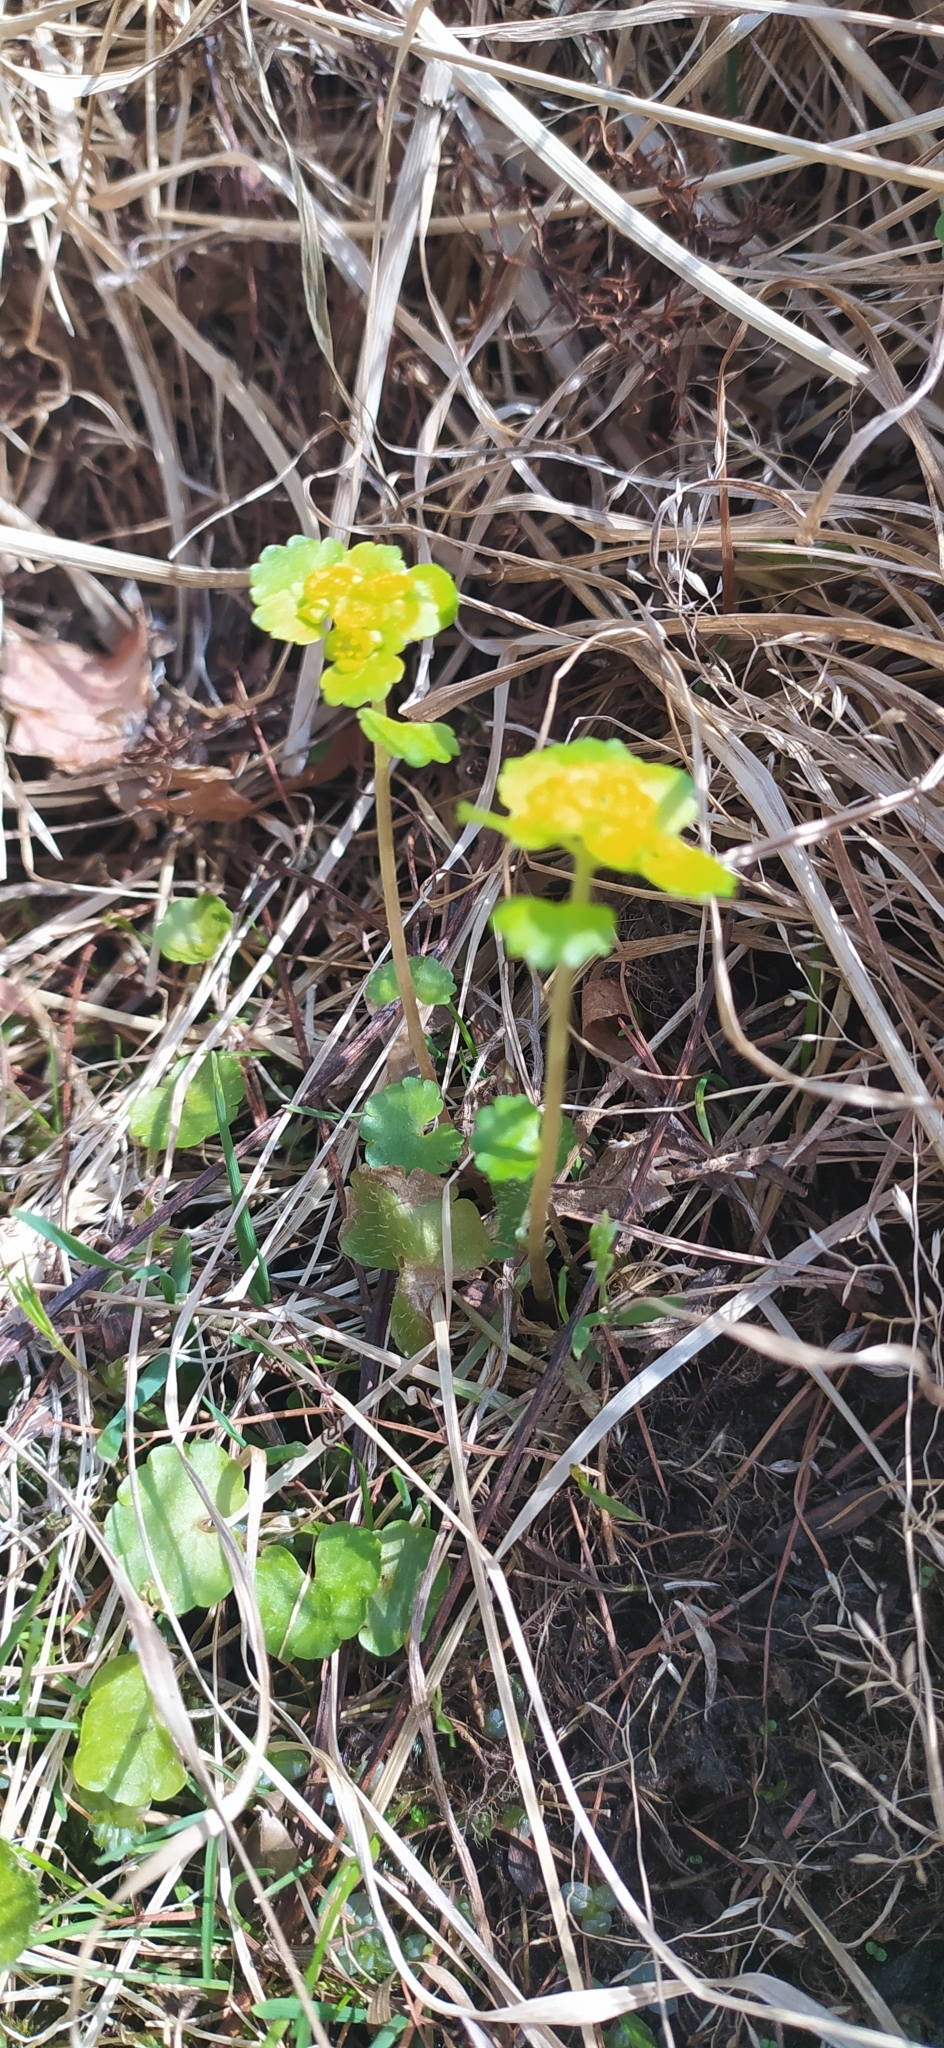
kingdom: Plantae
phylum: Tracheophyta
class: Magnoliopsida
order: Saxifragales
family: Saxifragaceae
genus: Chrysosplenium
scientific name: Chrysosplenium alternifolium
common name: Alternate-leaved golden-saxifrage
